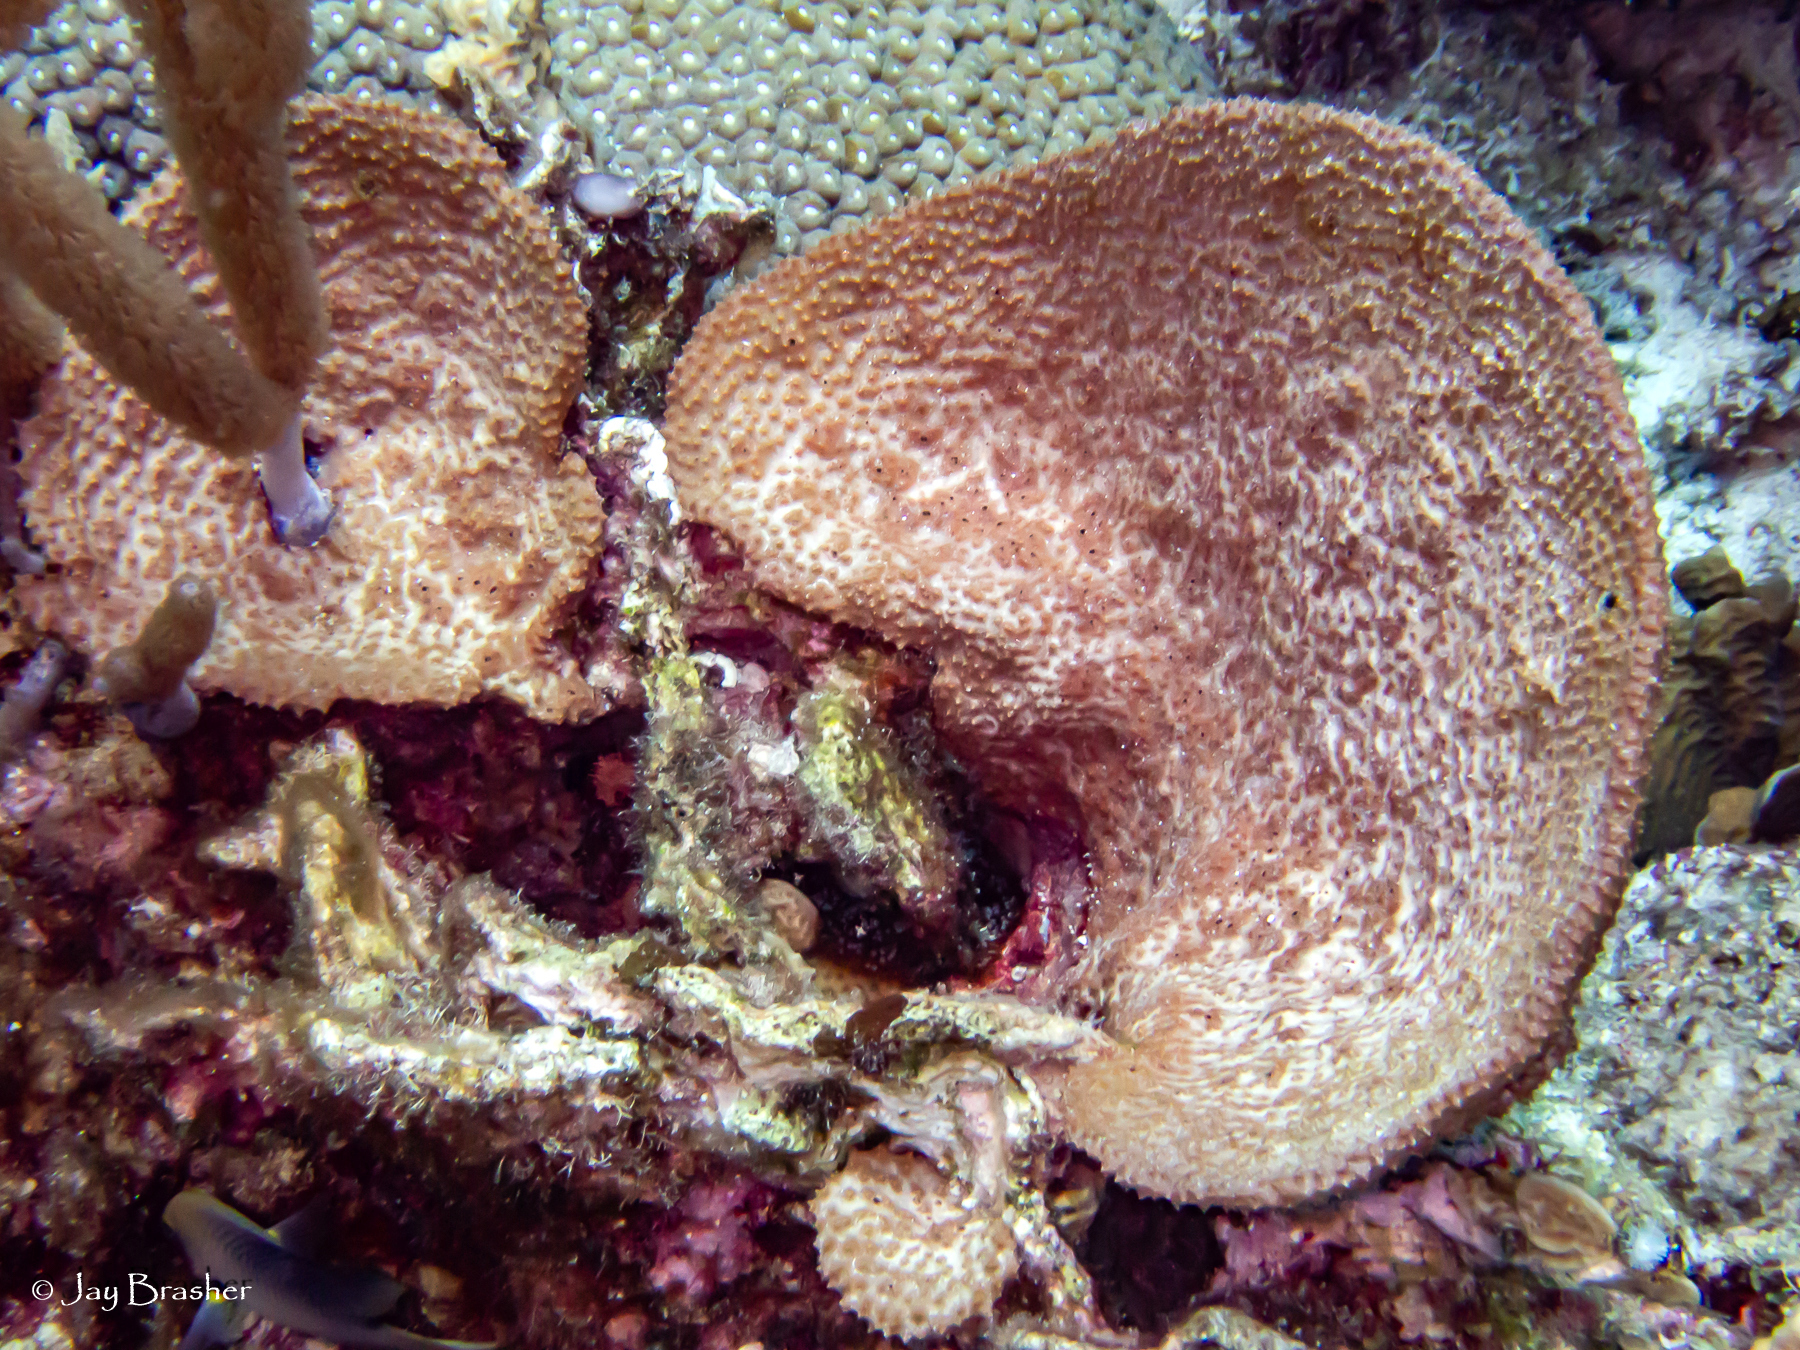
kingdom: Animalia
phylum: Porifera
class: Demospongiae
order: Dictyoceratida
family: Irciniidae
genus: Ircinia
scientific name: Ircinia campana
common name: Vase sponge
